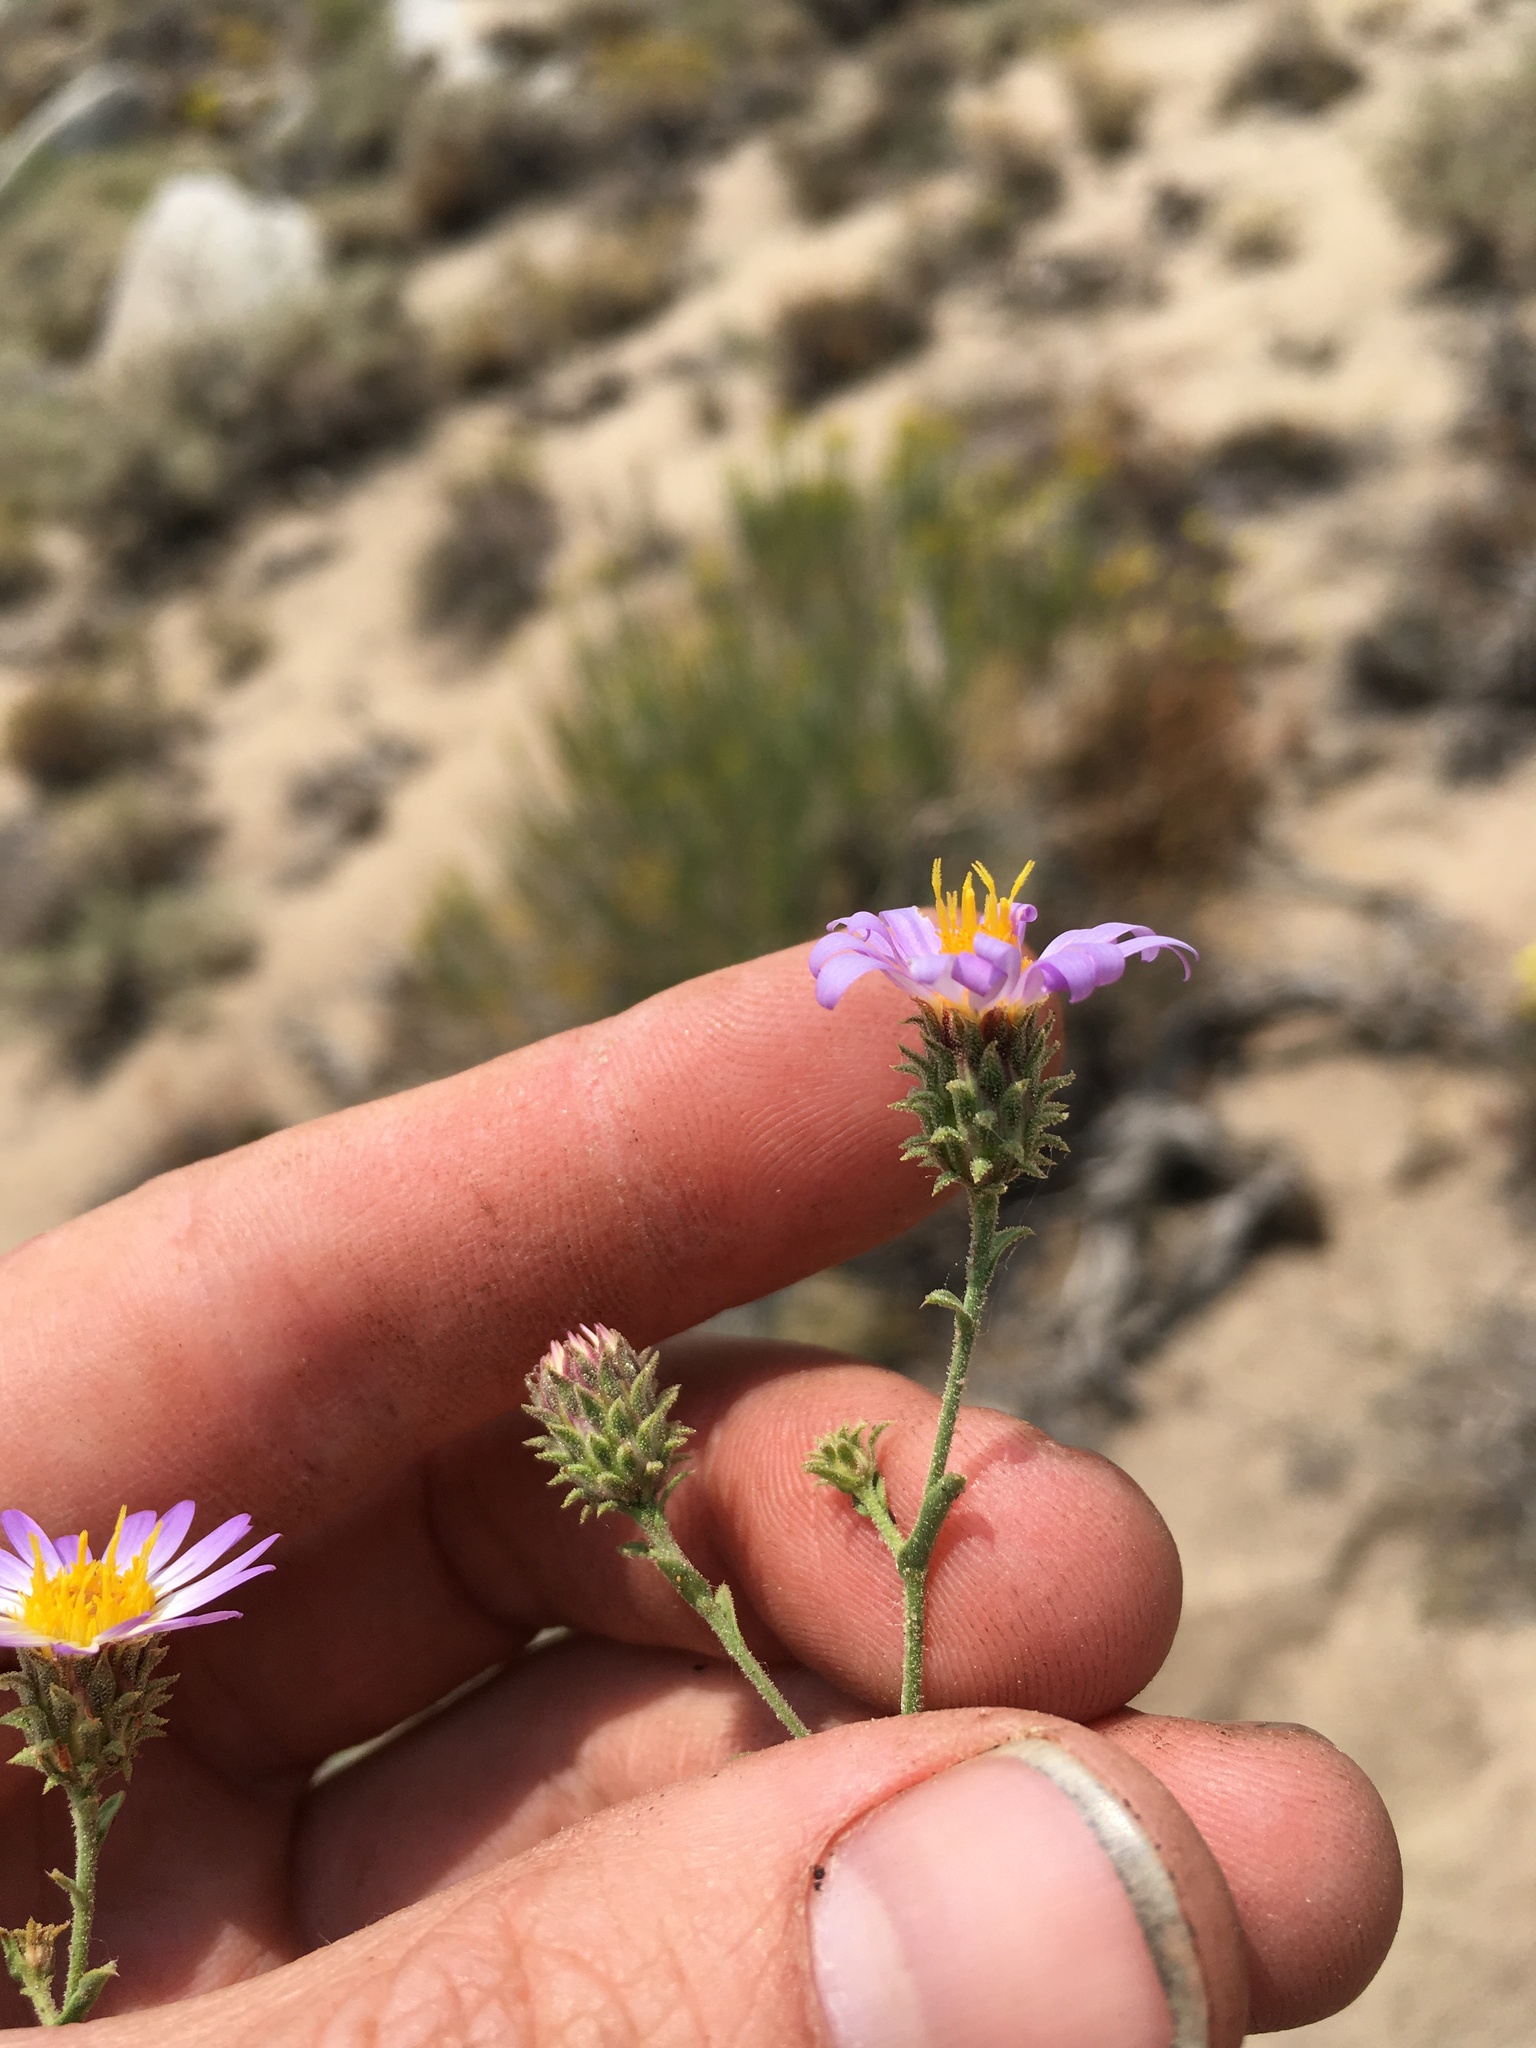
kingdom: Plantae
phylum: Tracheophyta
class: Magnoliopsida
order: Asterales
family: Asteraceae
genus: Dieteria
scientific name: Dieteria canescens
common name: Hoary-aster
